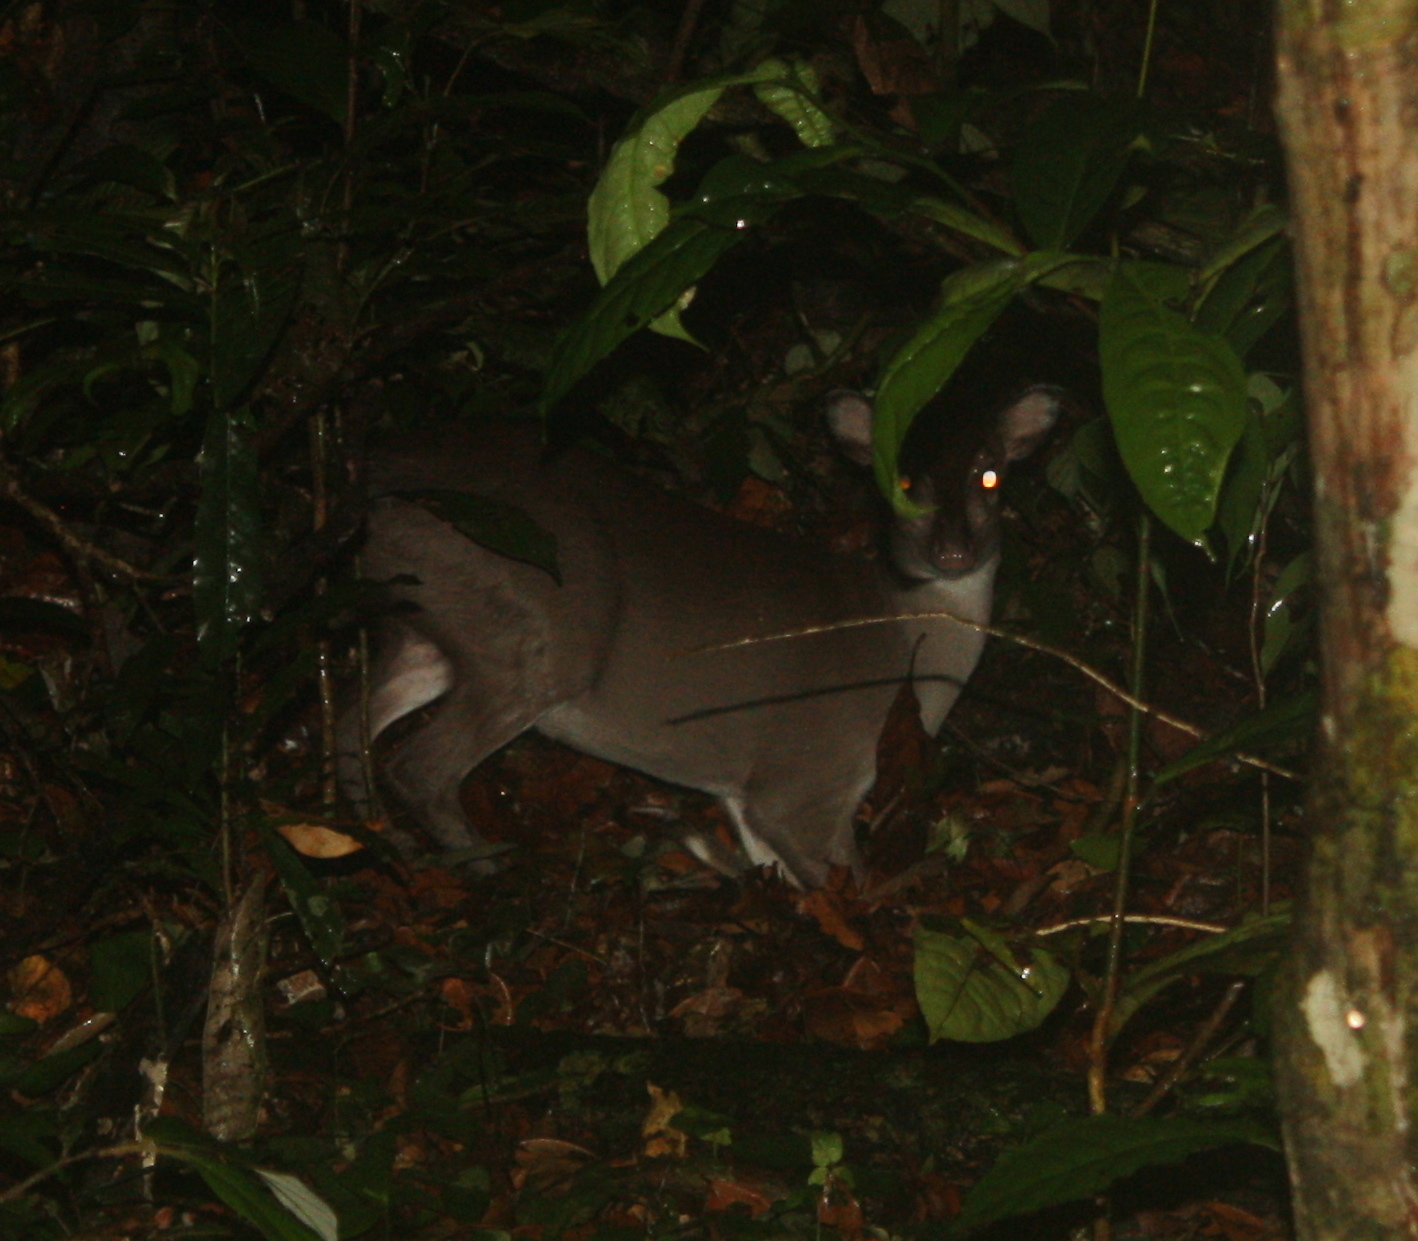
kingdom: Animalia
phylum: Chordata
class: Mammalia
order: Artiodactyla
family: Bovidae
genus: Philantomba
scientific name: Philantomba maxwellii
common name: Maxwell's duiker
